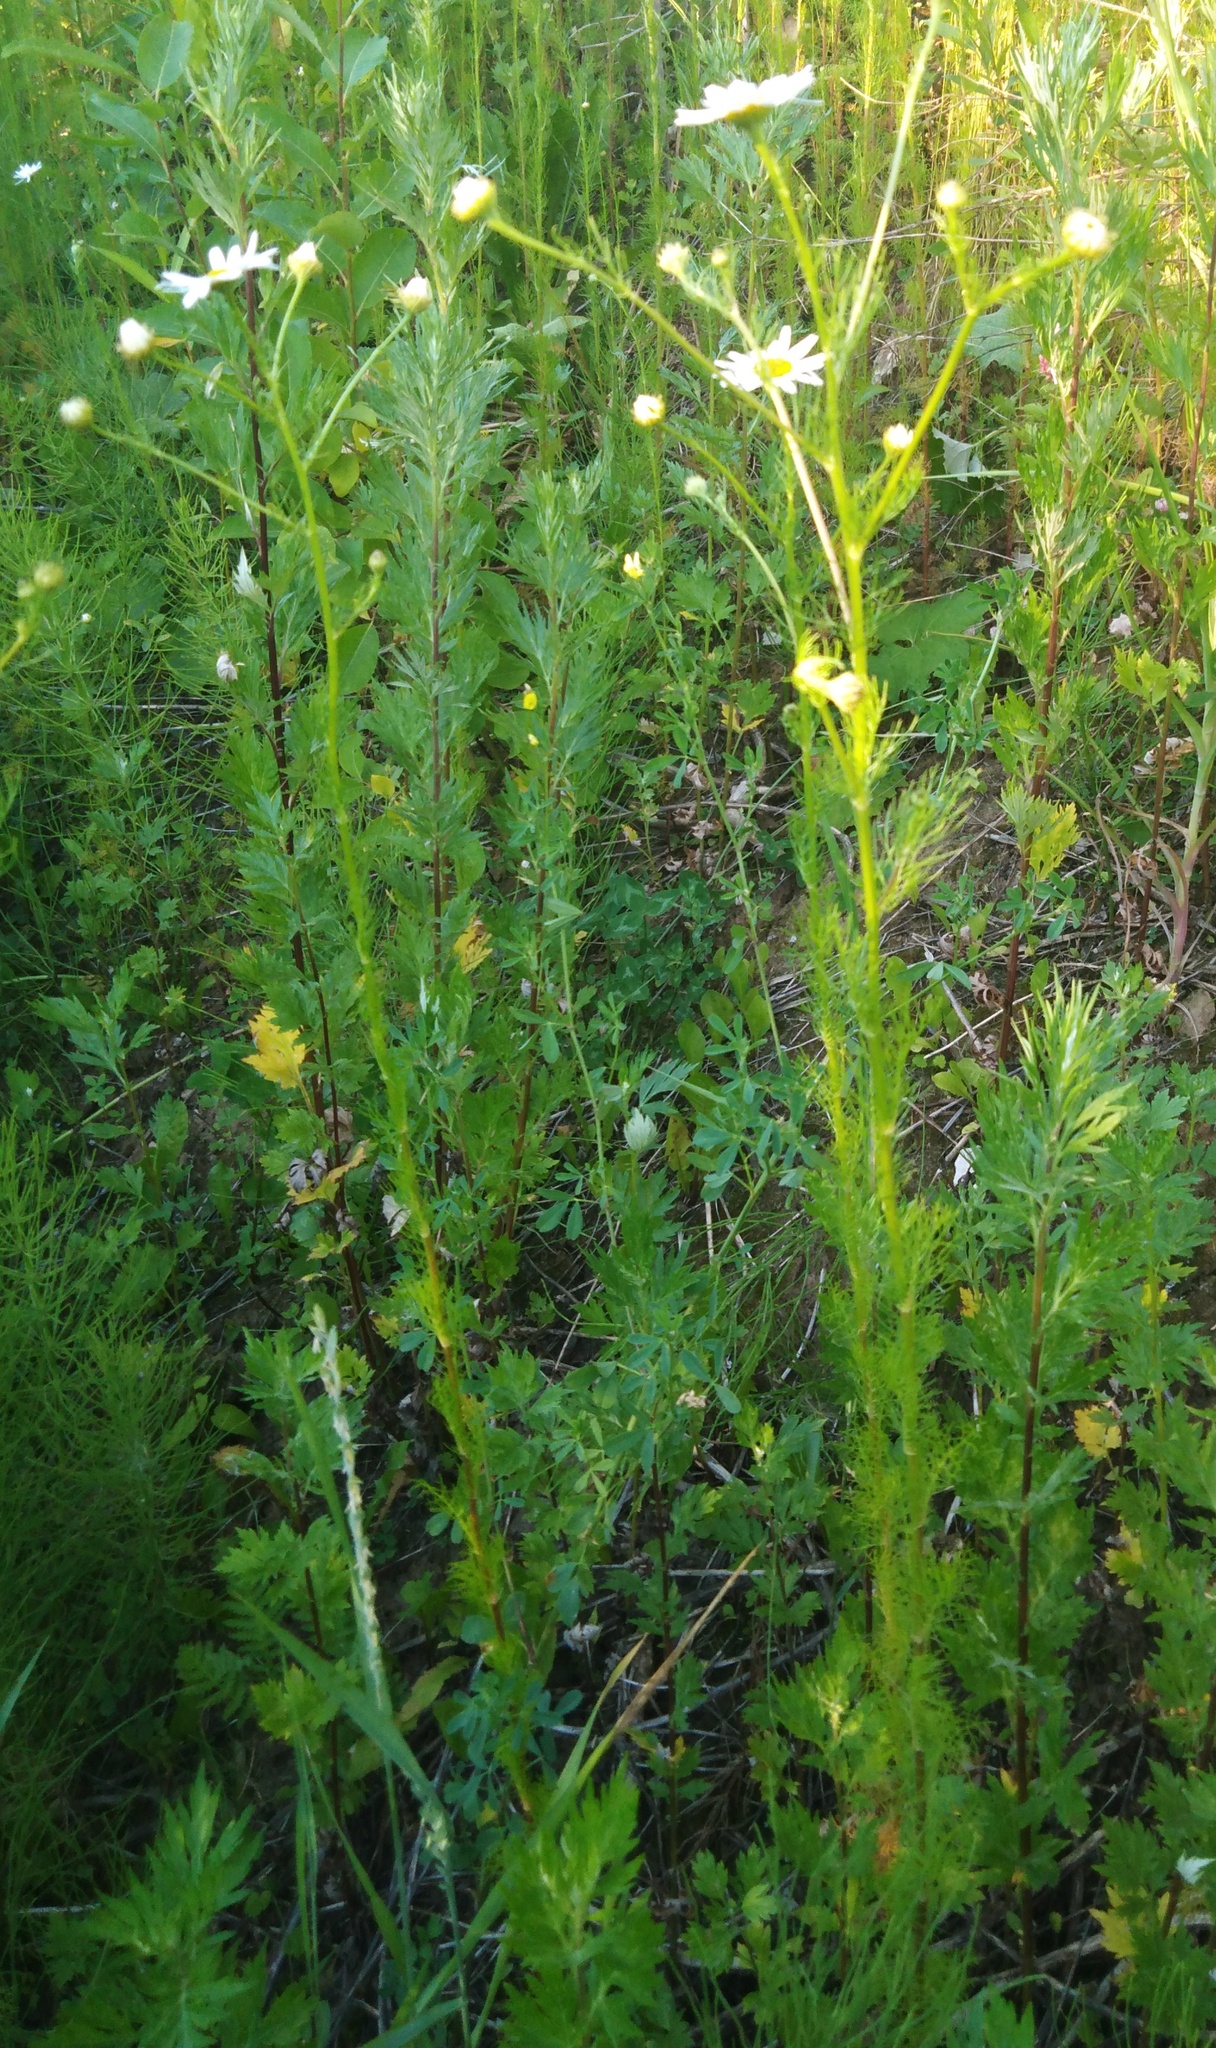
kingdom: Plantae
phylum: Tracheophyta
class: Magnoliopsida
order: Asterales
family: Asteraceae
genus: Tripleurospermum
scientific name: Tripleurospermum inodorum
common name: Scentless mayweed
